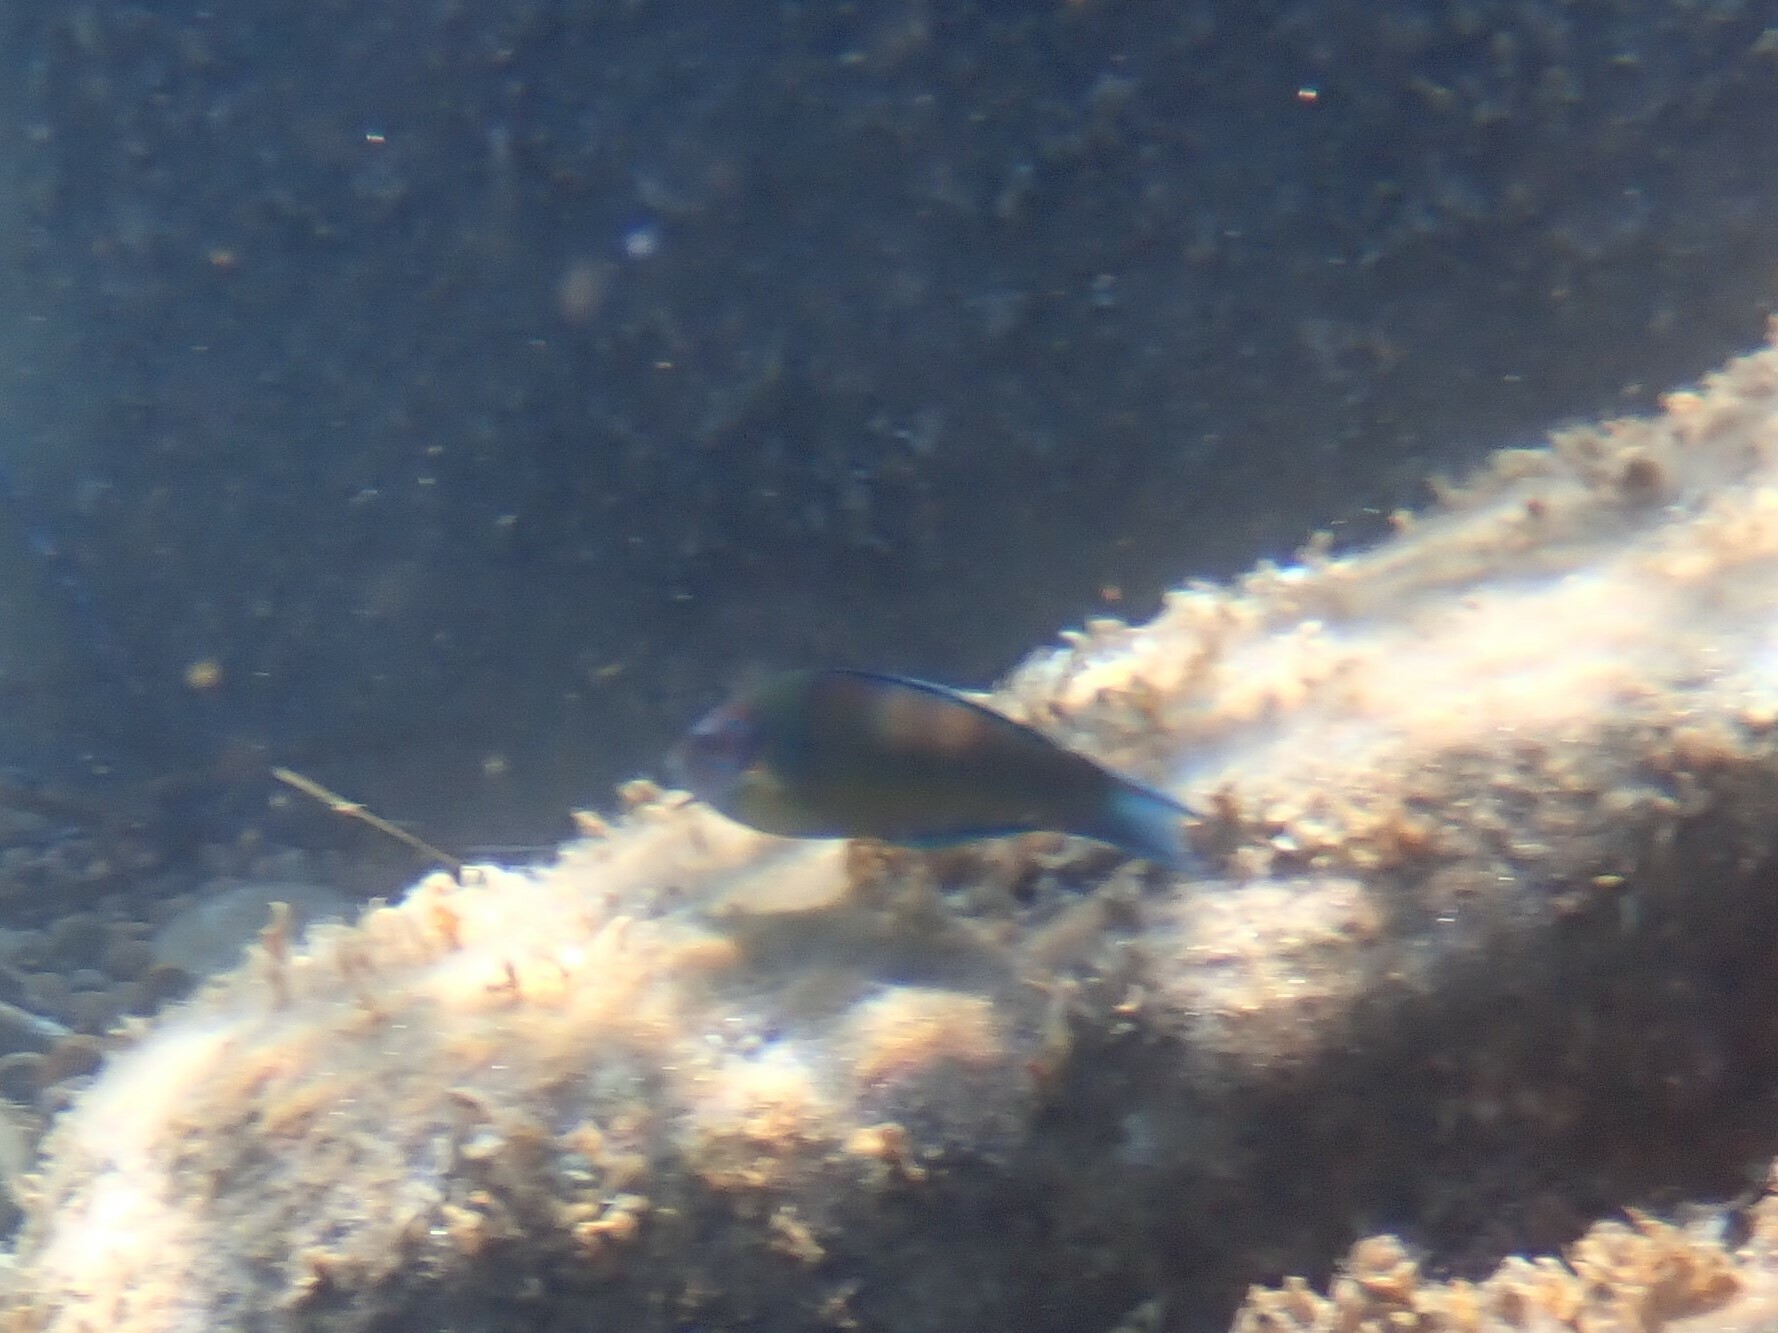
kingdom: Animalia
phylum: Chordata
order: Perciformes
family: Labridae
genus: Thalassoma
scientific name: Thalassoma pavo
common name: Ornate wrasse
